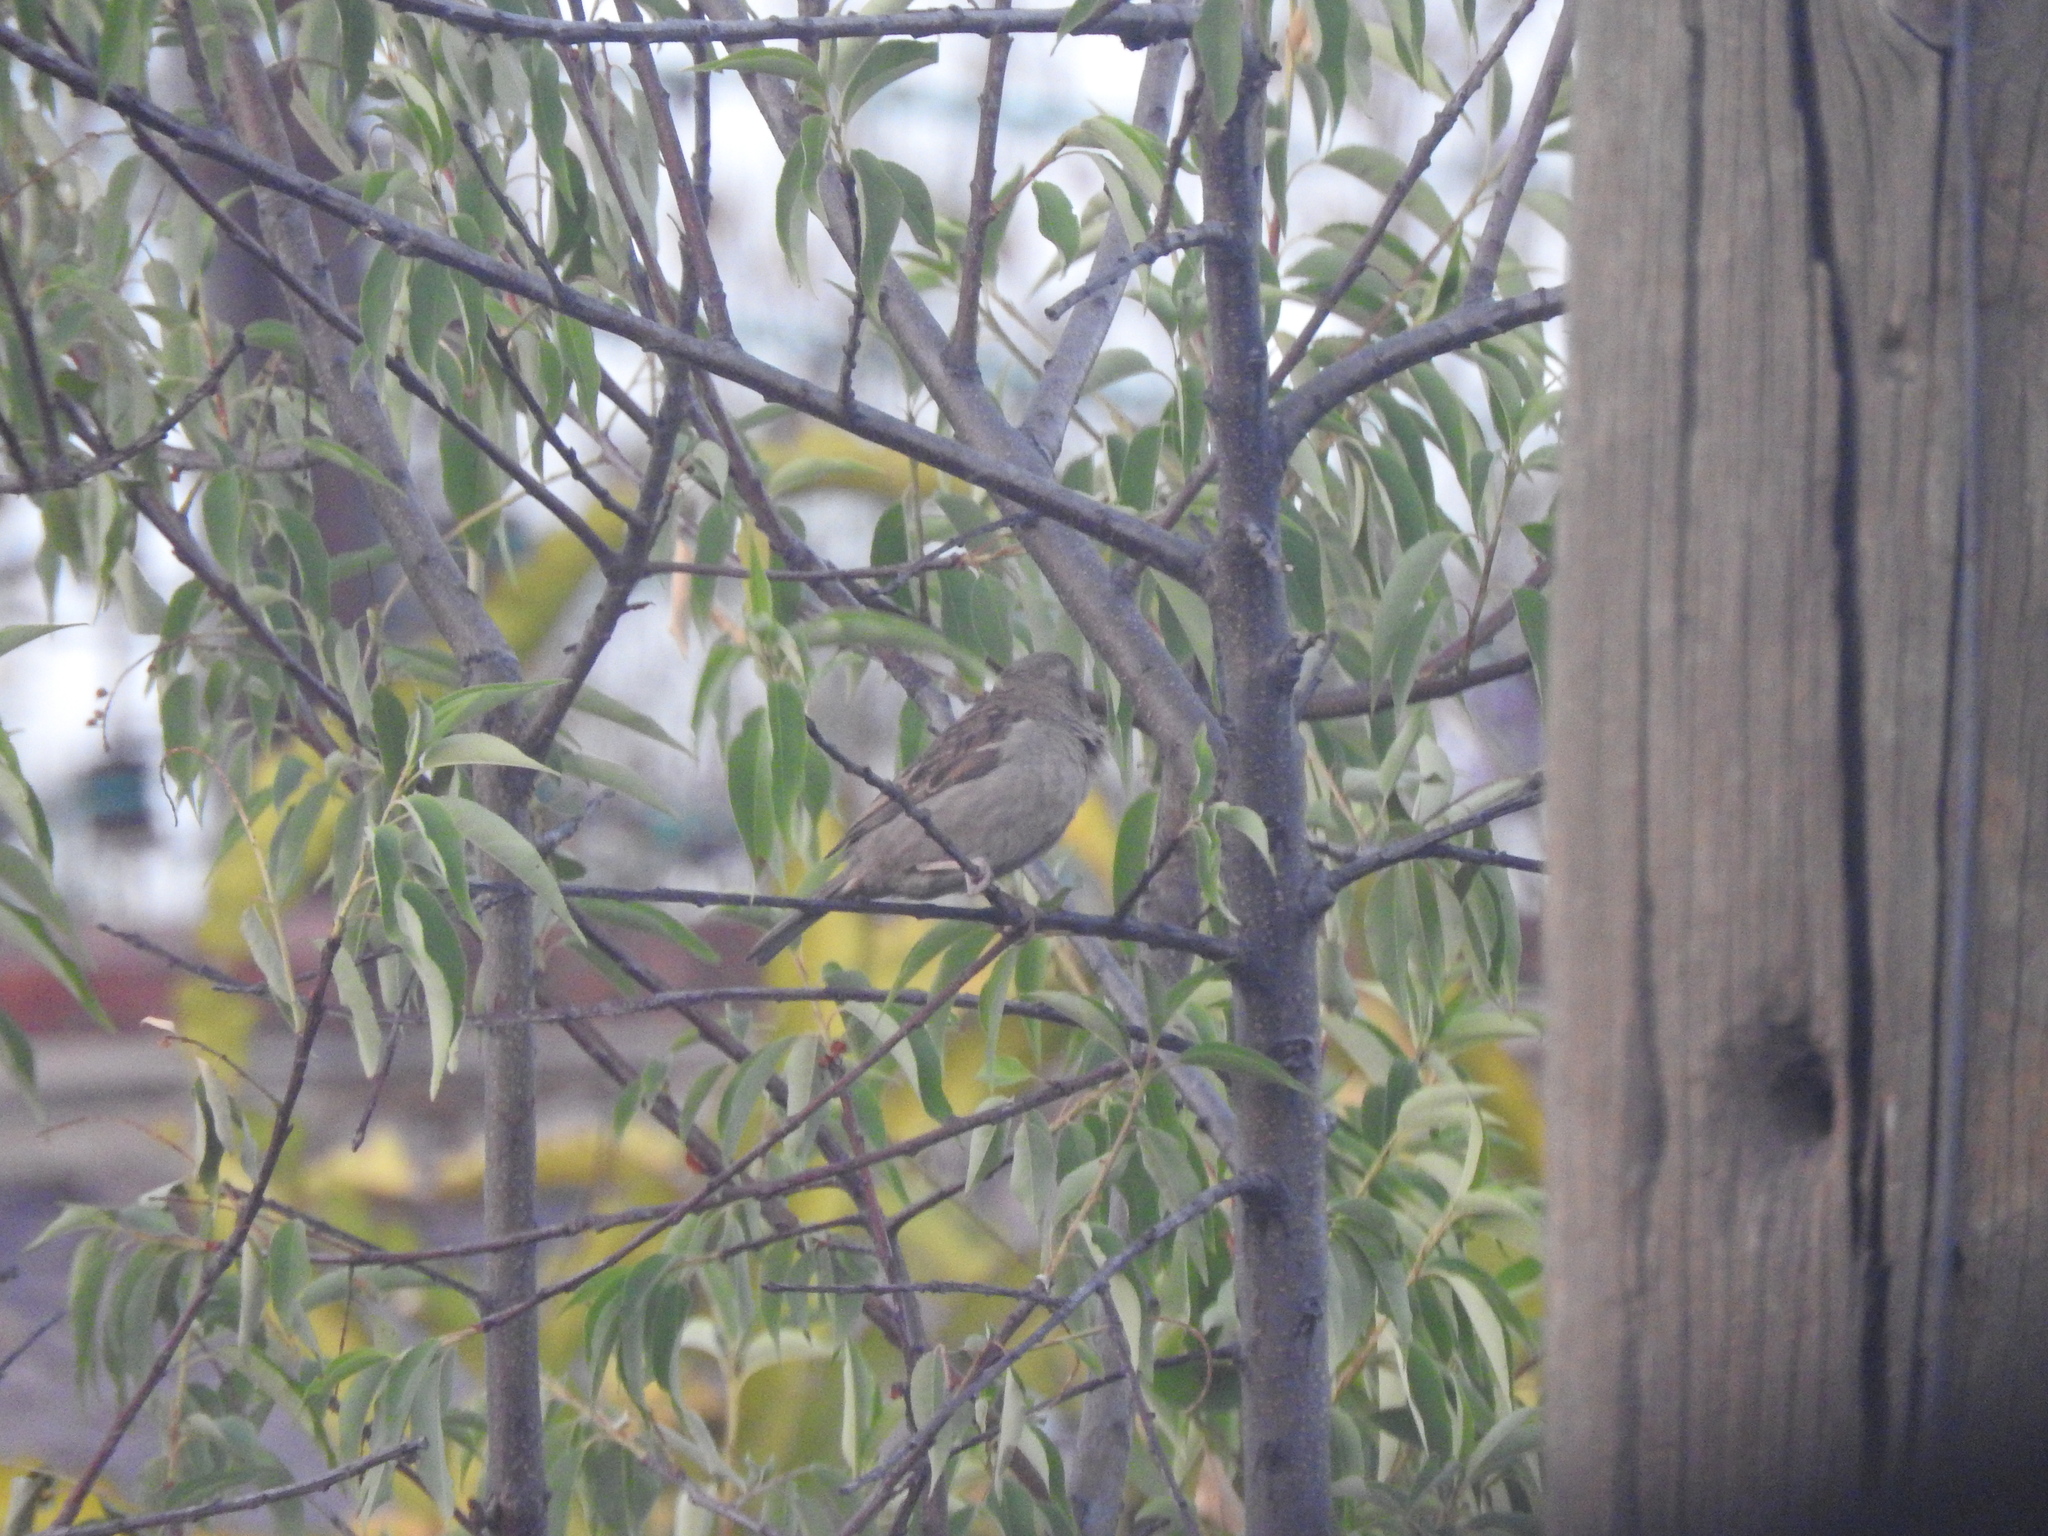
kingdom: Animalia
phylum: Chordata
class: Aves
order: Passeriformes
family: Passeridae
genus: Passer
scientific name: Passer domesticus
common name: House sparrow
